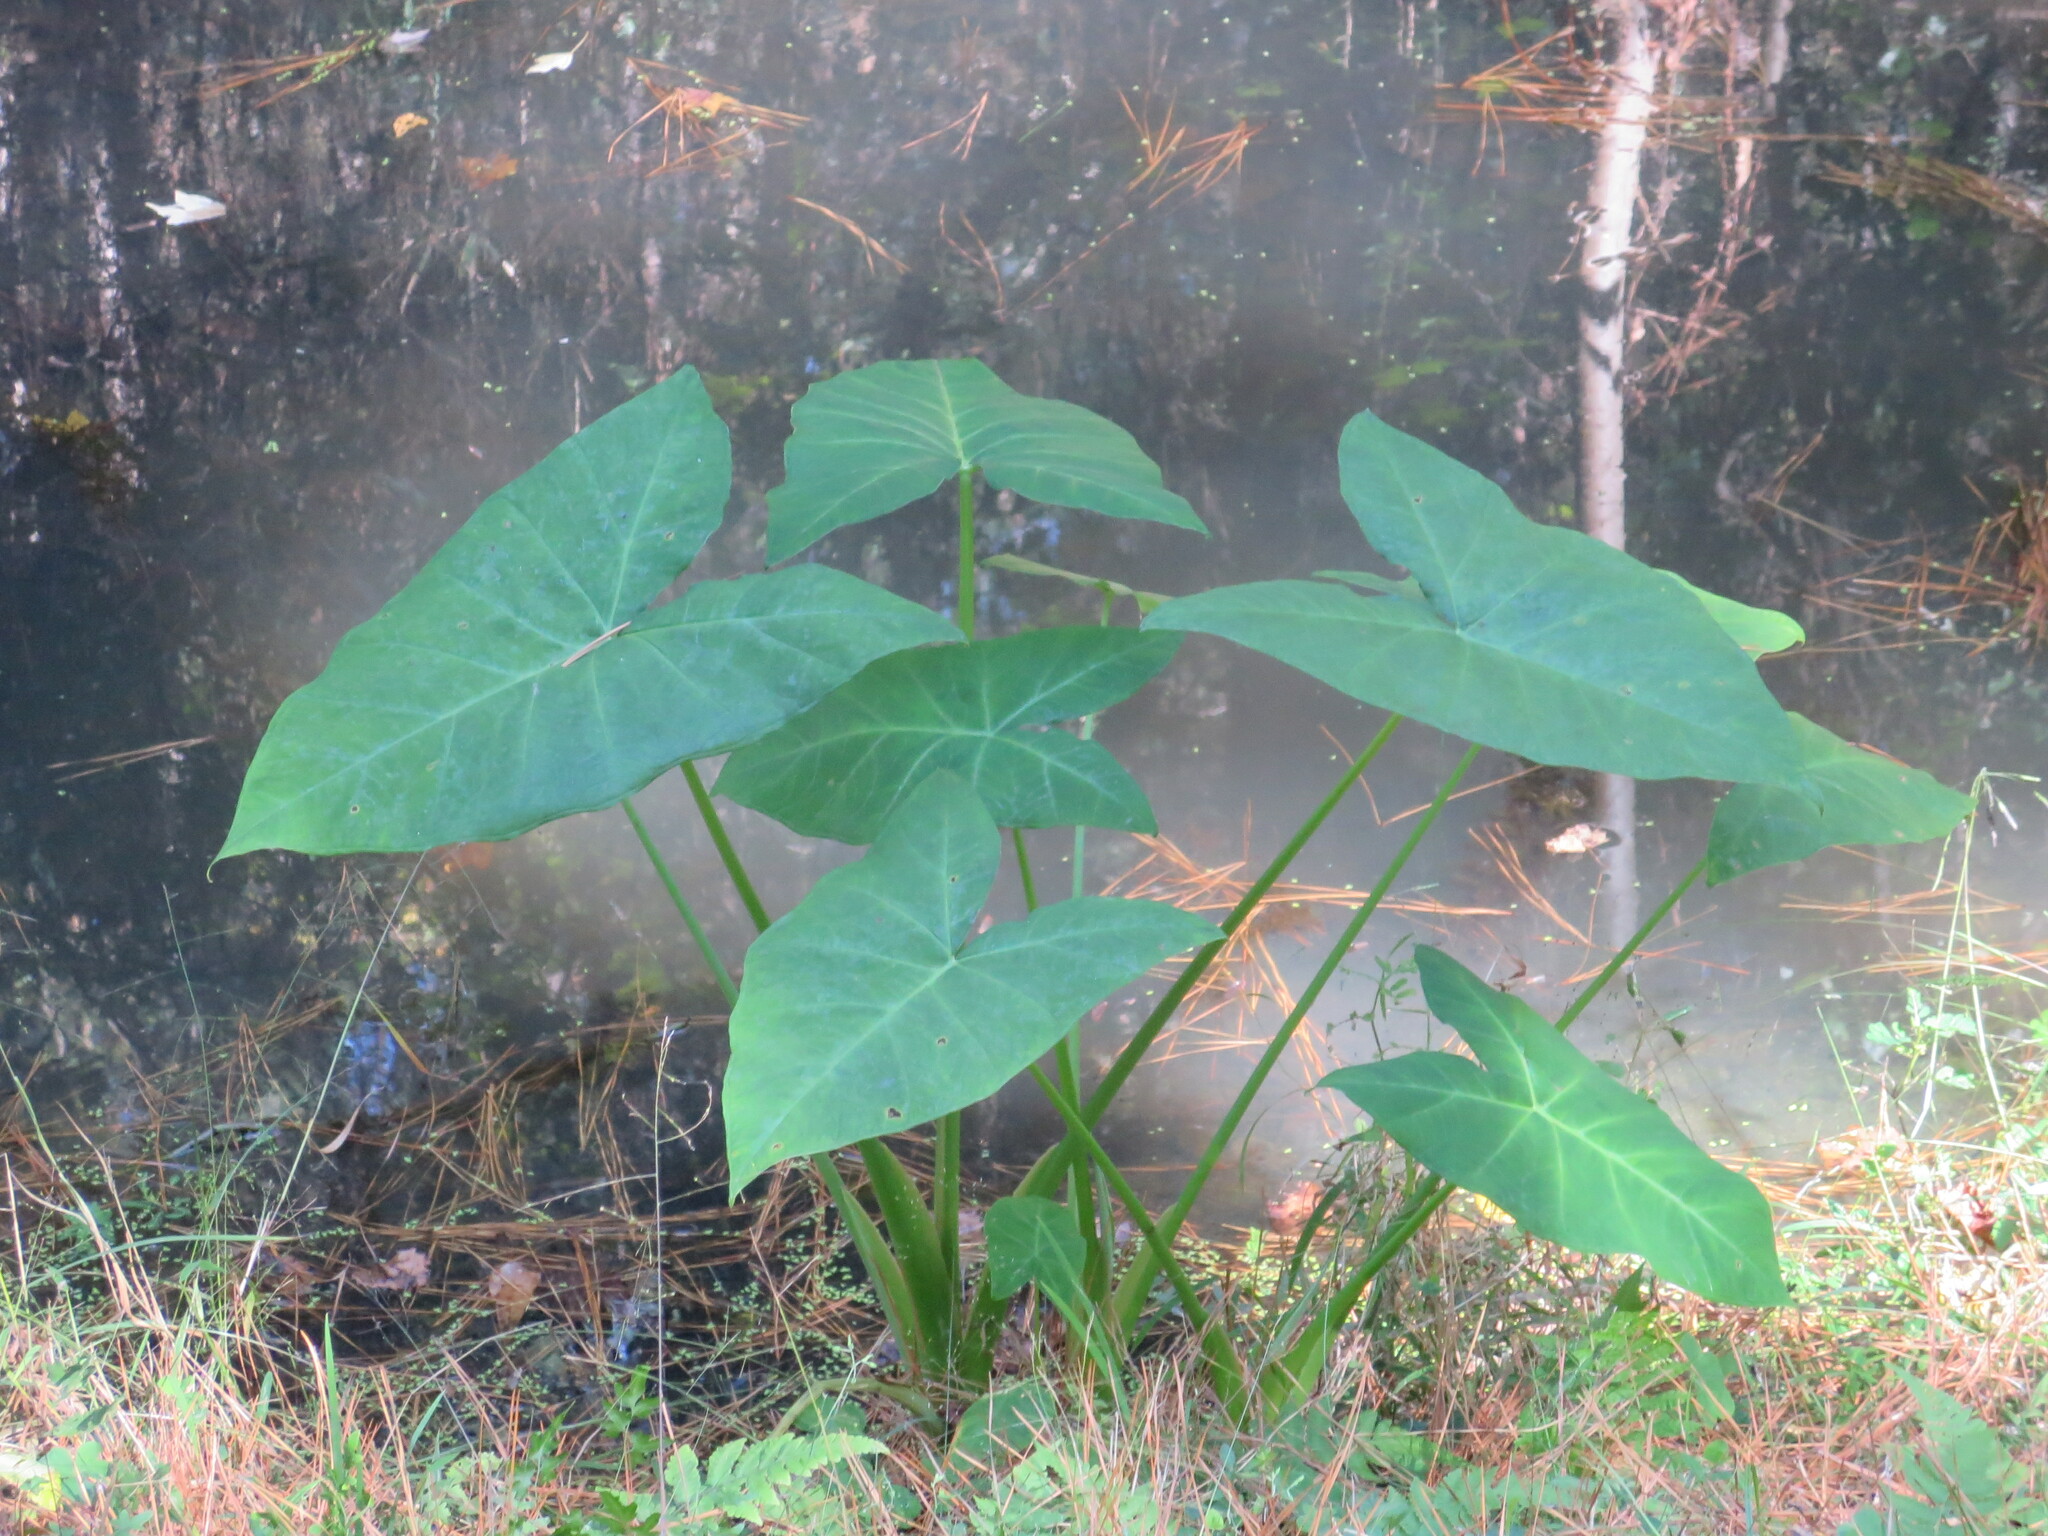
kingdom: Plantae
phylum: Tracheophyta
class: Liliopsida
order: Alismatales
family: Araceae
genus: Xanthosoma
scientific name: Xanthosoma sagittifolium
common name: Arrowleaf elephant's ear
